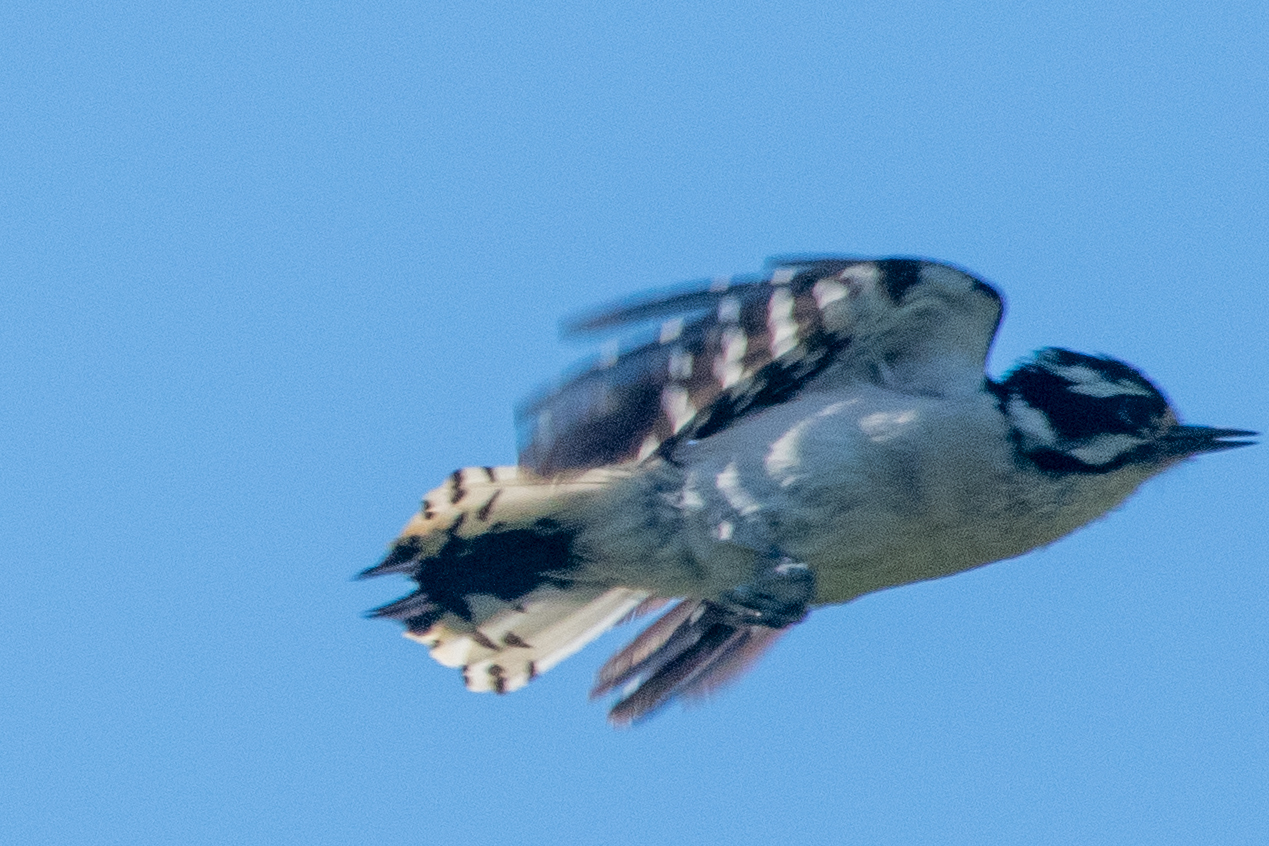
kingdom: Animalia
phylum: Chordata
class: Aves
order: Piciformes
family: Picidae
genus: Dryobates
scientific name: Dryobates pubescens
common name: Downy woodpecker
